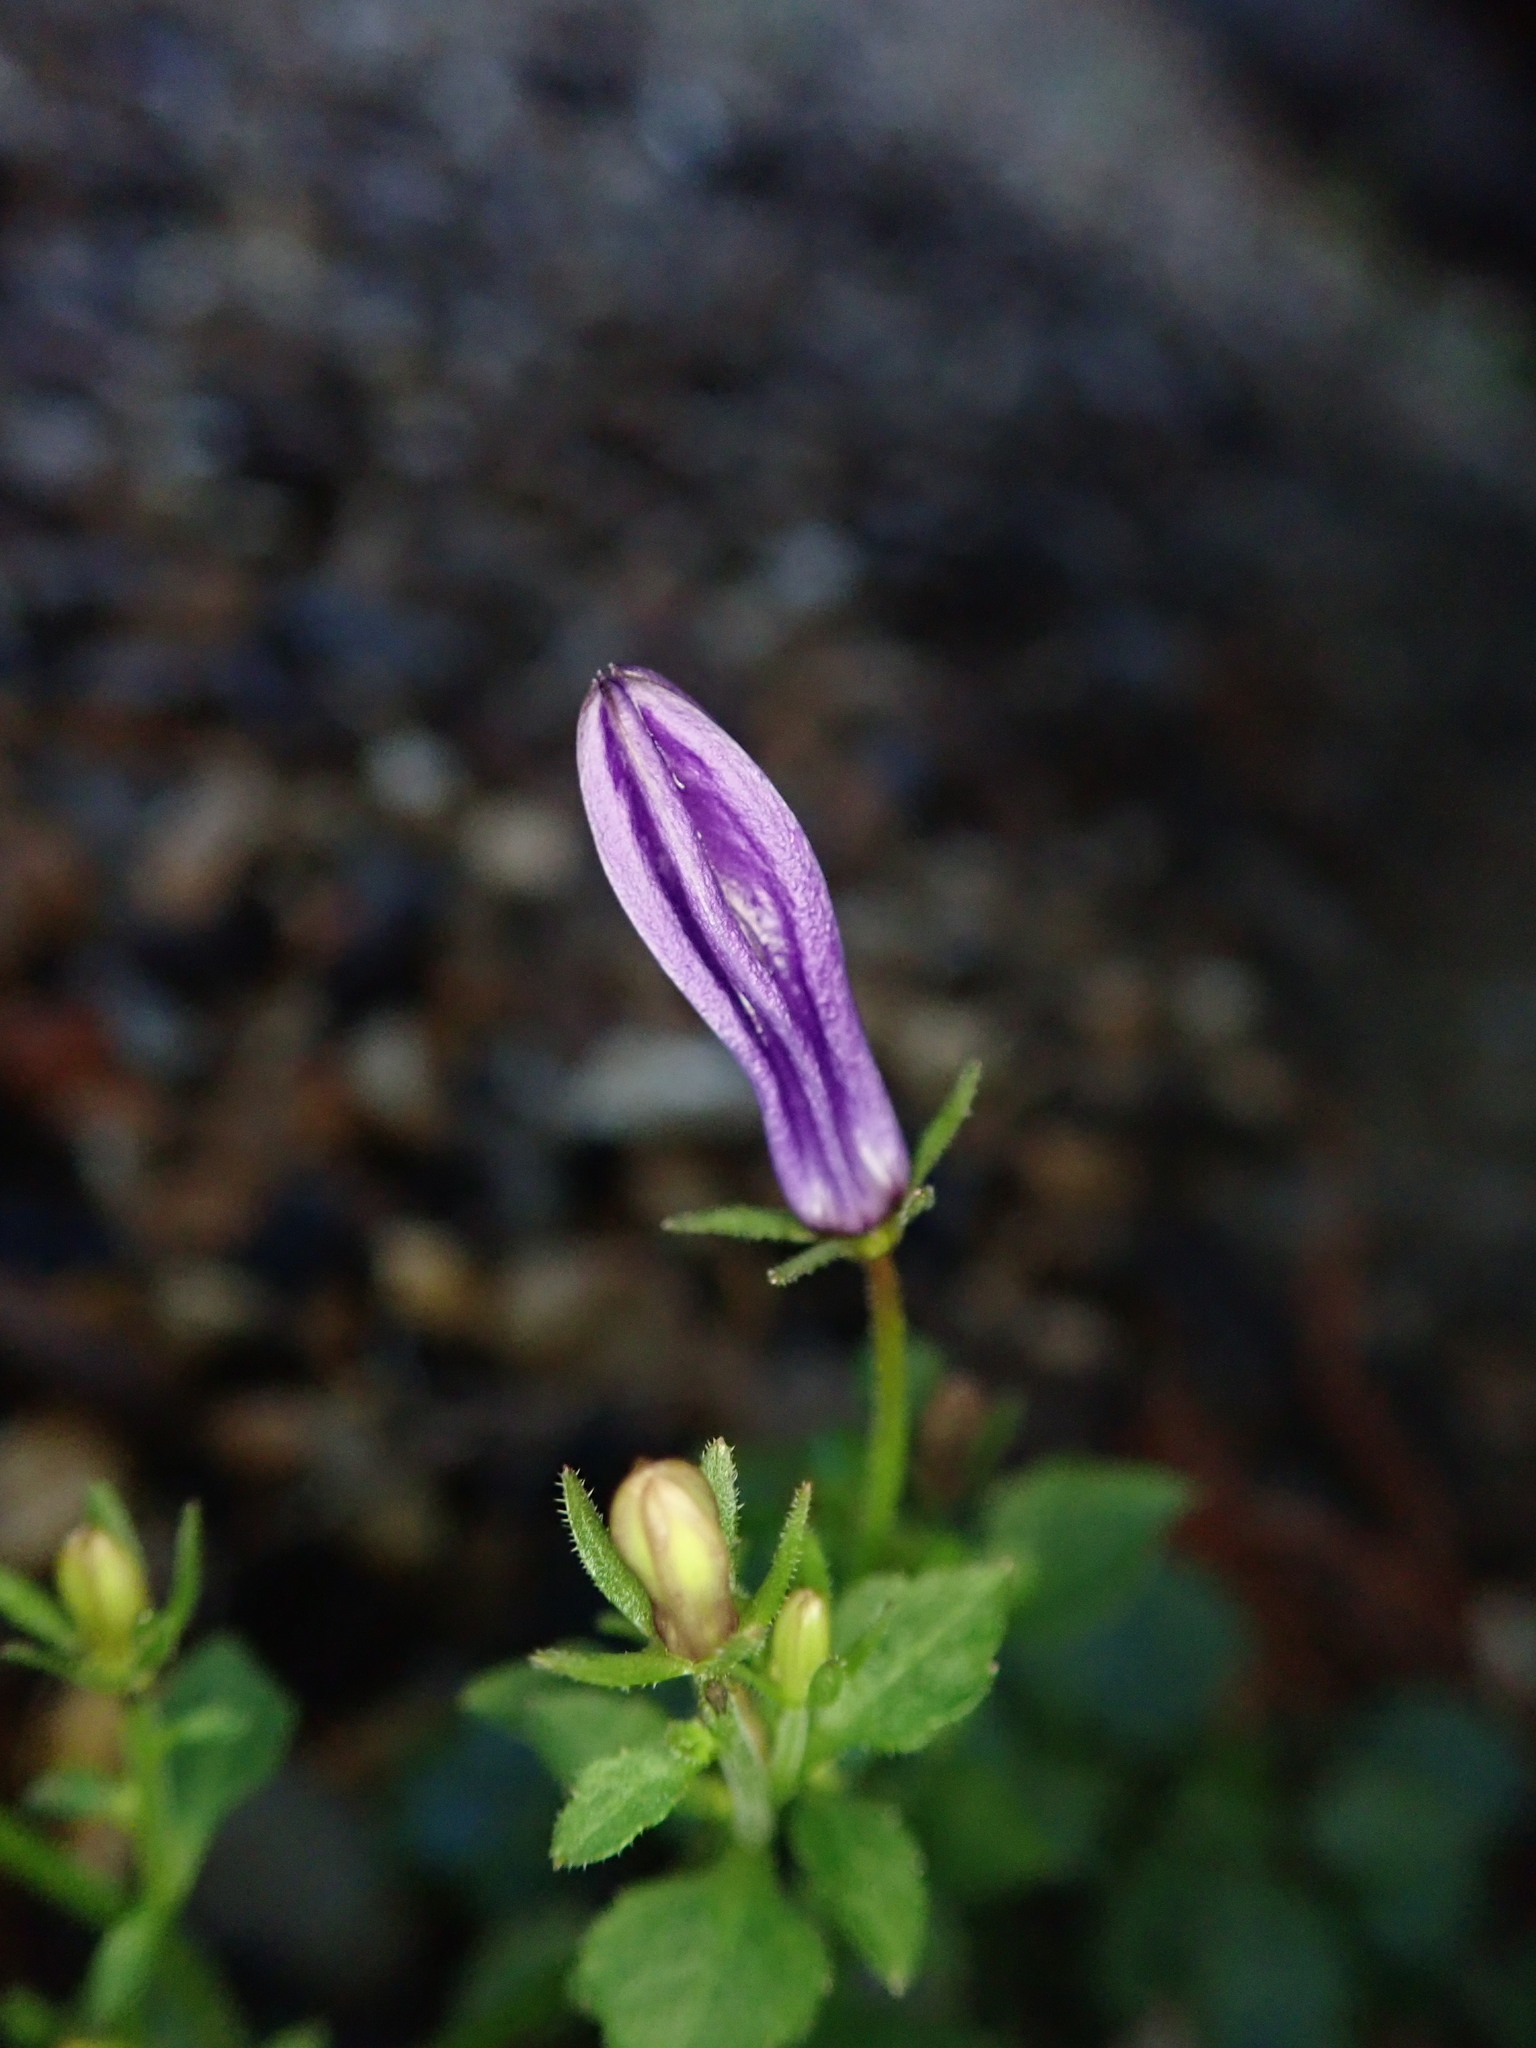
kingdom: Plantae
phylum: Tracheophyta
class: Magnoliopsida
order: Asterales
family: Campanulaceae
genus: Campanula
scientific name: Campanula portenschlagiana
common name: Adria bellflower
